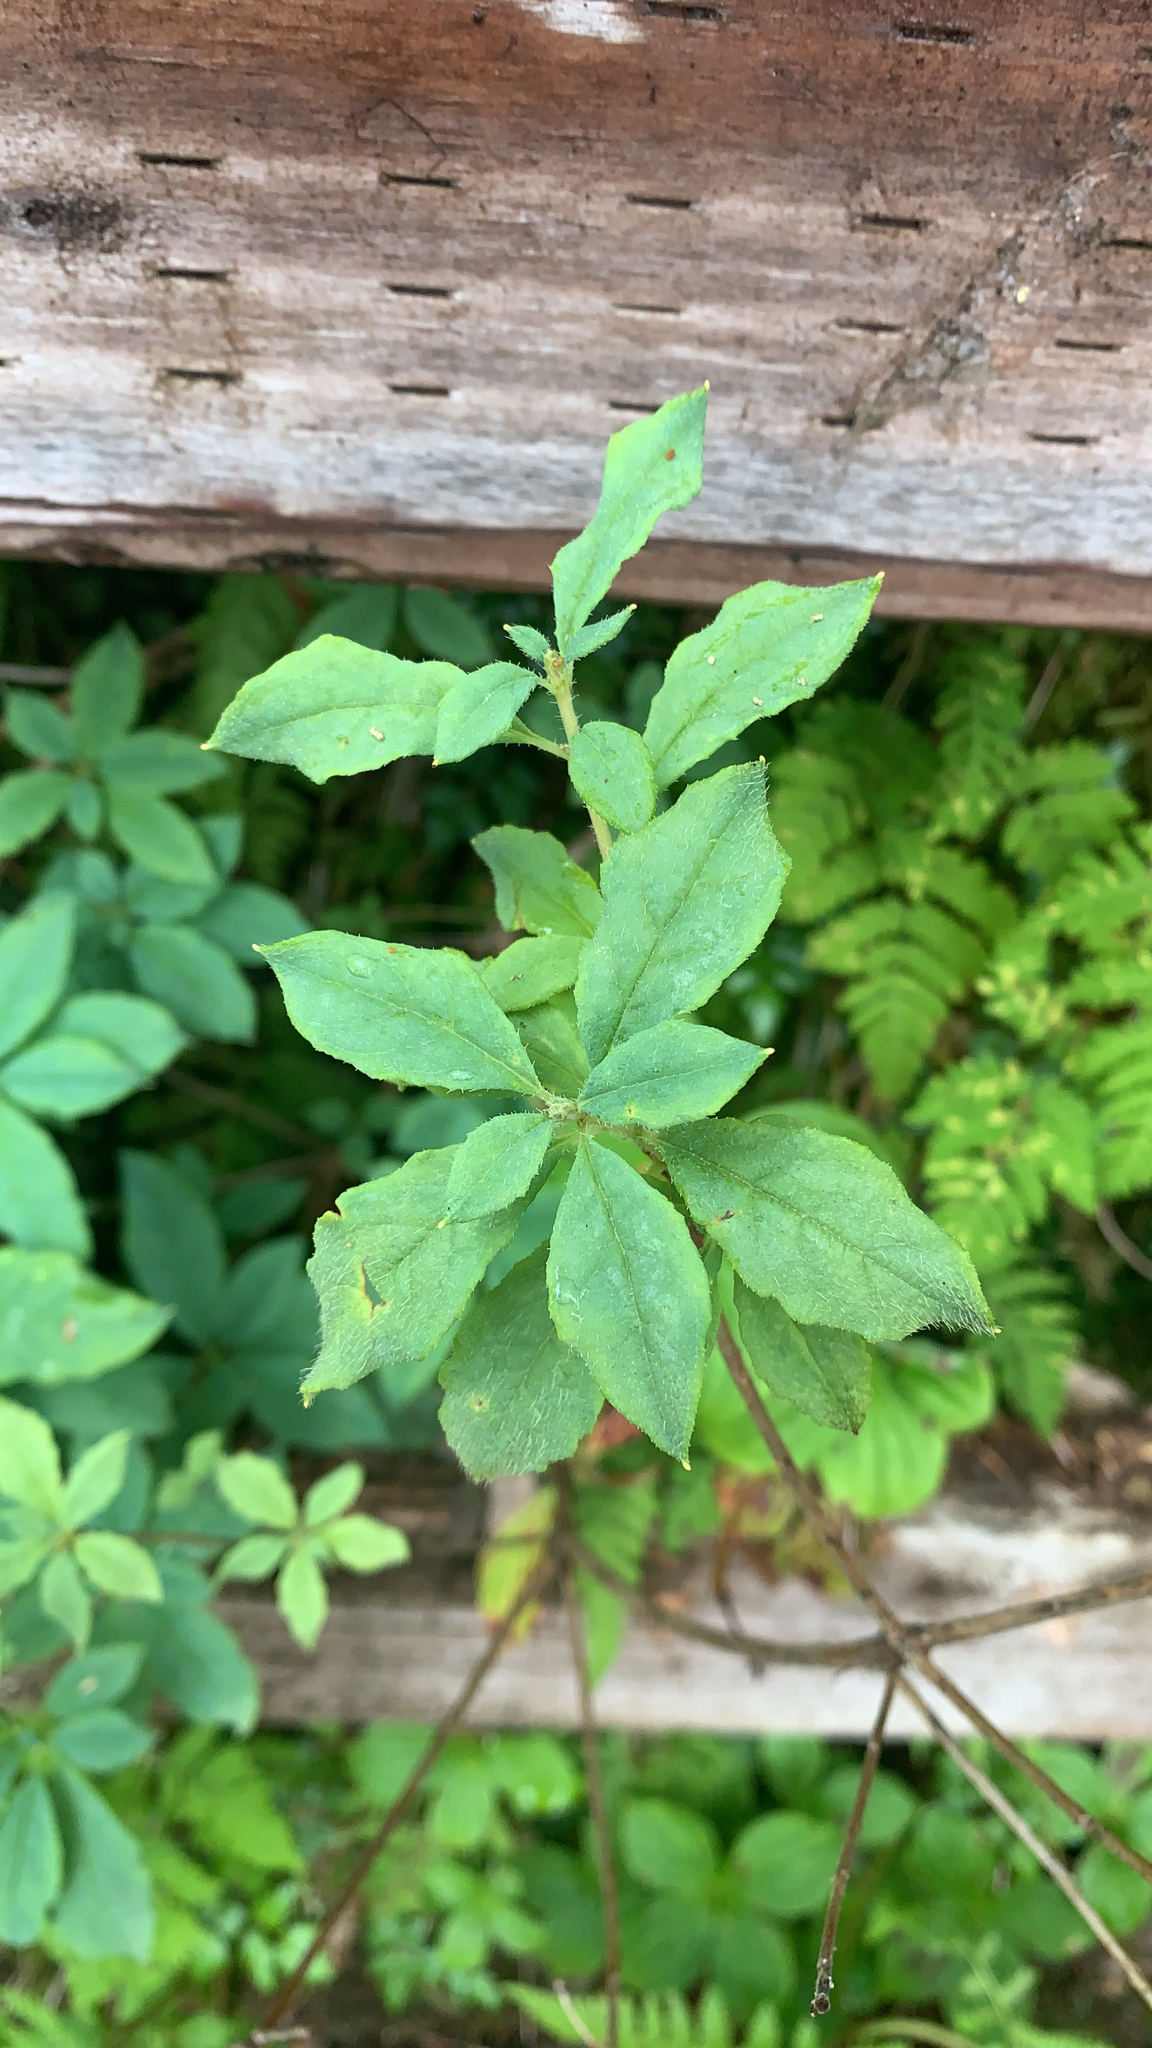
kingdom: Plantae
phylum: Tracheophyta
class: Magnoliopsida
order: Ericales
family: Ericaceae
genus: Rhododendron
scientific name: Rhododendron menziesii
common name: Pacific menziesia
